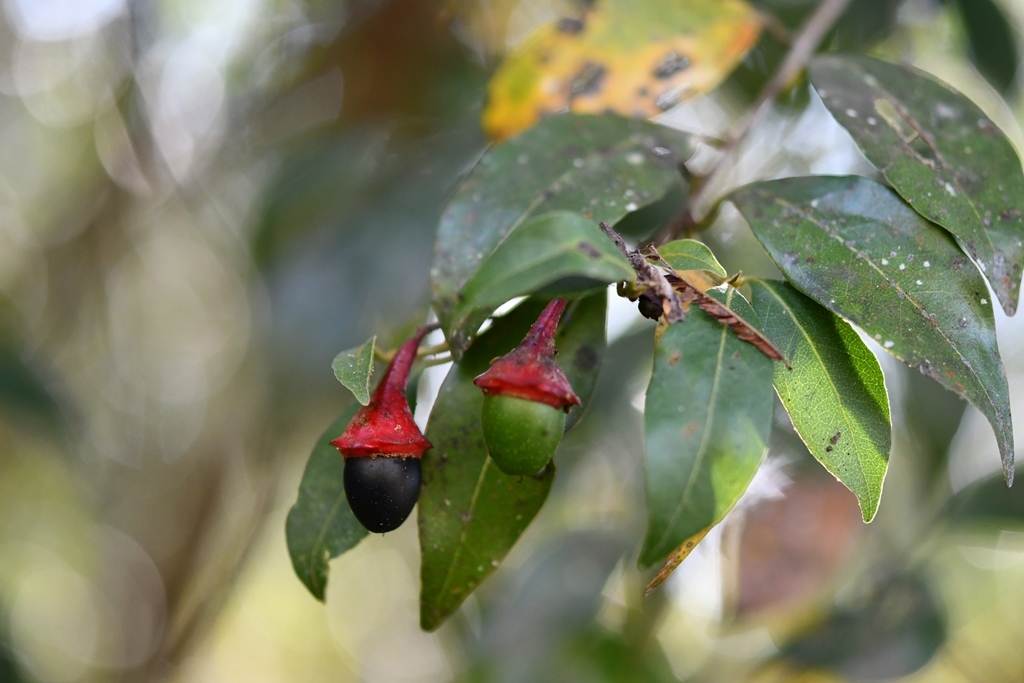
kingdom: Plantae
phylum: Tracheophyta
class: Magnoliopsida
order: Laurales
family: Lauraceae
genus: Licaria
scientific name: Licaria misantlae
